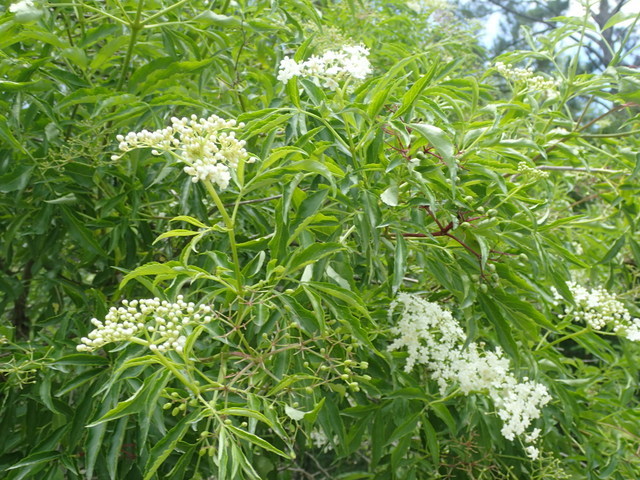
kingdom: Plantae
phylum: Tracheophyta
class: Magnoliopsida
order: Dipsacales
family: Viburnaceae
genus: Sambucus
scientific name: Sambucus canadensis
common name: American elder
